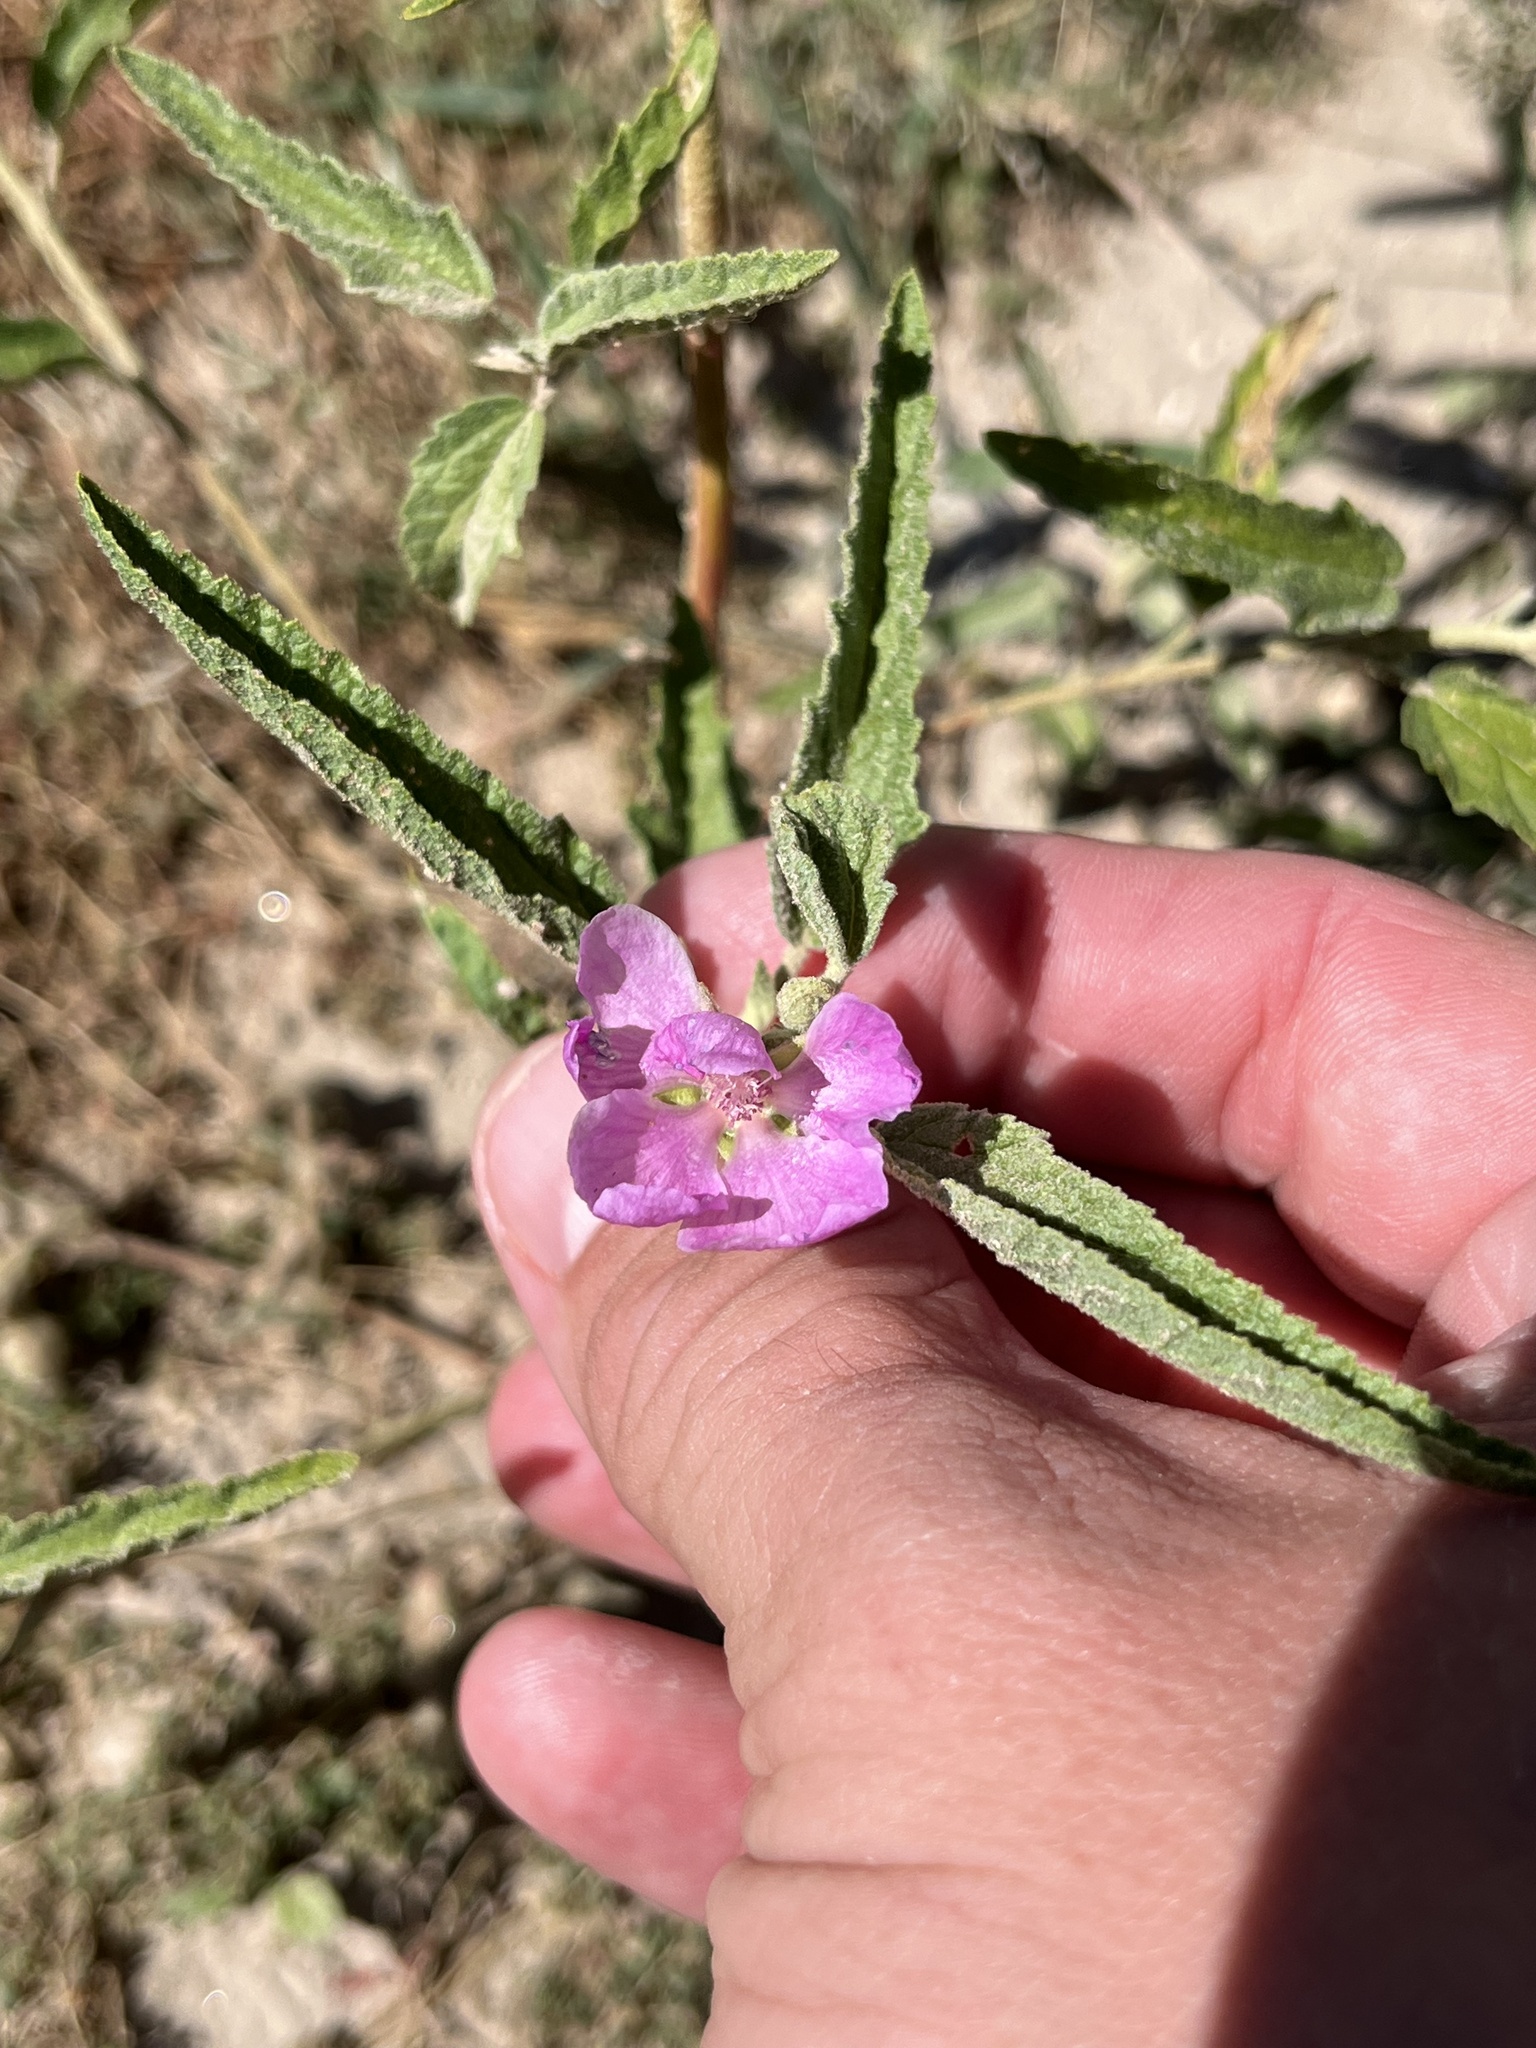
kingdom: Plantae
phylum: Tracheophyta
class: Magnoliopsida
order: Malvales
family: Malvaceae
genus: Sphaeralcea
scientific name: Sphaeralcea angustifolia
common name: Copper globe-mallow
